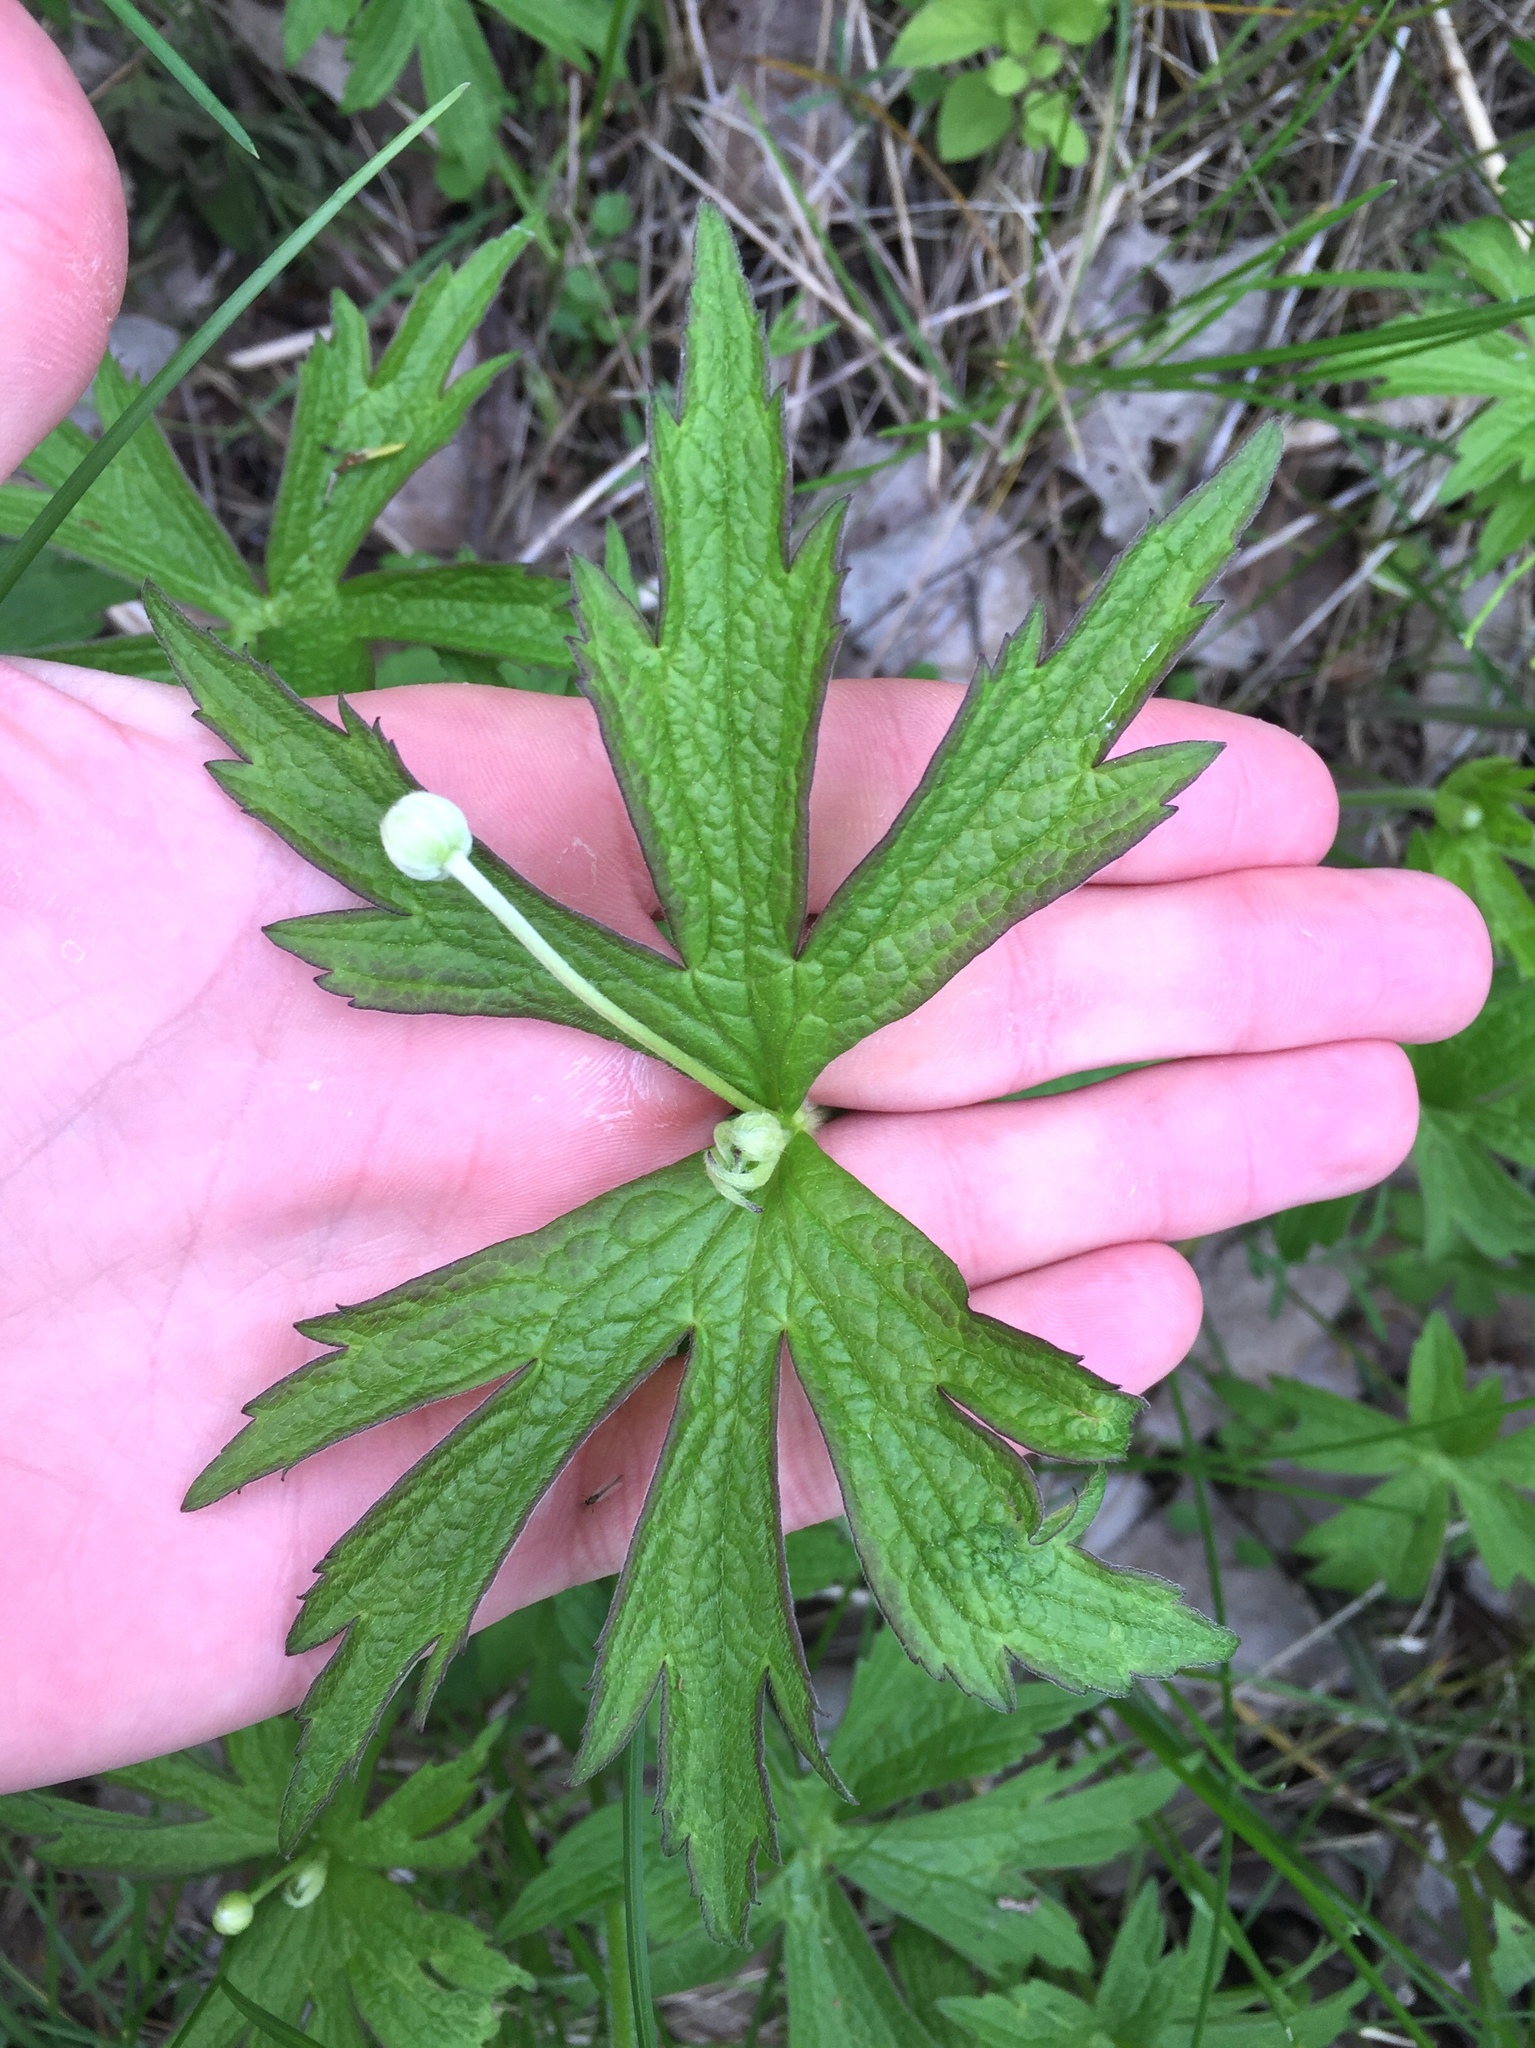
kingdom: Plantae
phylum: Tracheophyta
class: Magnoliopsida
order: Ranunculales
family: Ranunculaceae
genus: Anemonastrum
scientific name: Anemonastrum canadense
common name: Canada anemone
